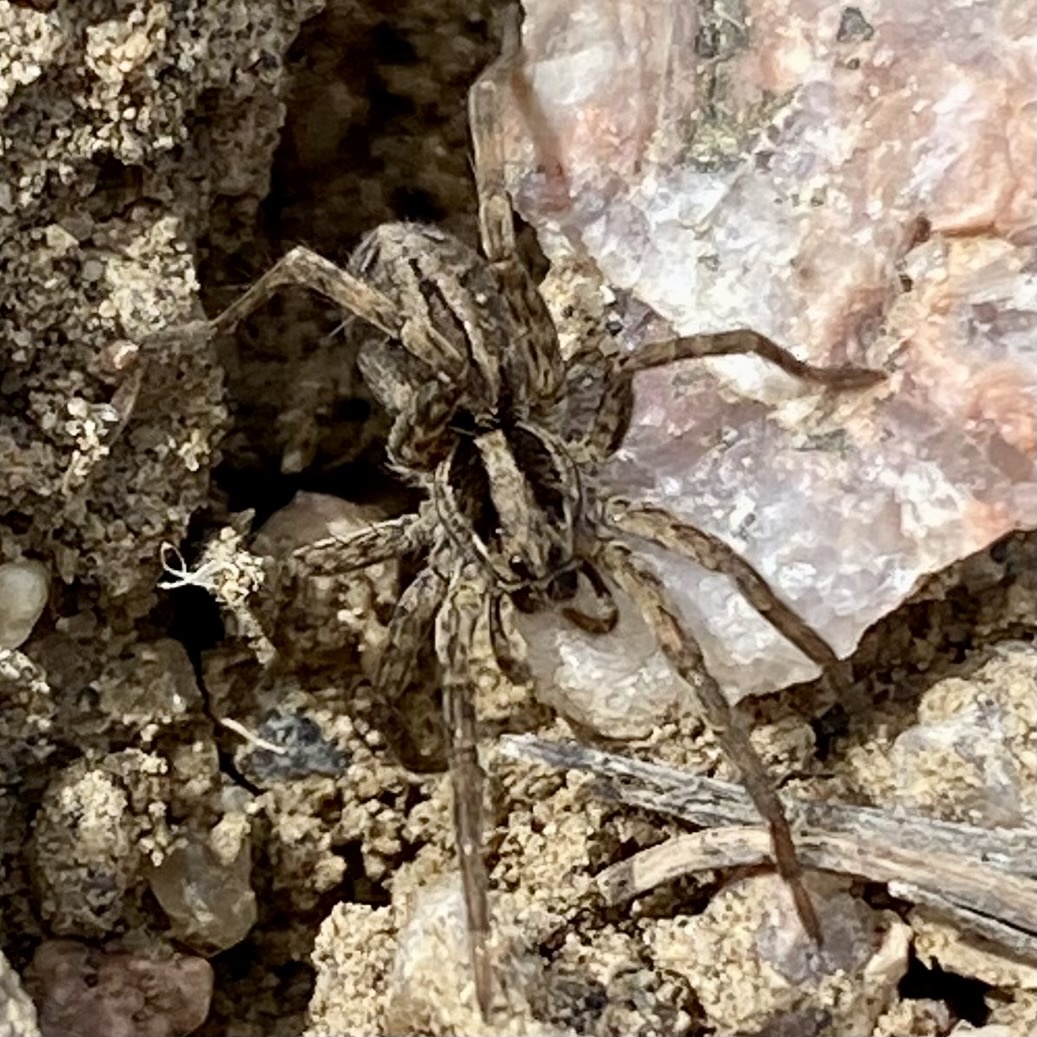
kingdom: Animalia
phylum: Arthropoda
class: Arachnida
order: Araneae
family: Lycosidae
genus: Schizocosa
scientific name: Schizocosa mccooki
